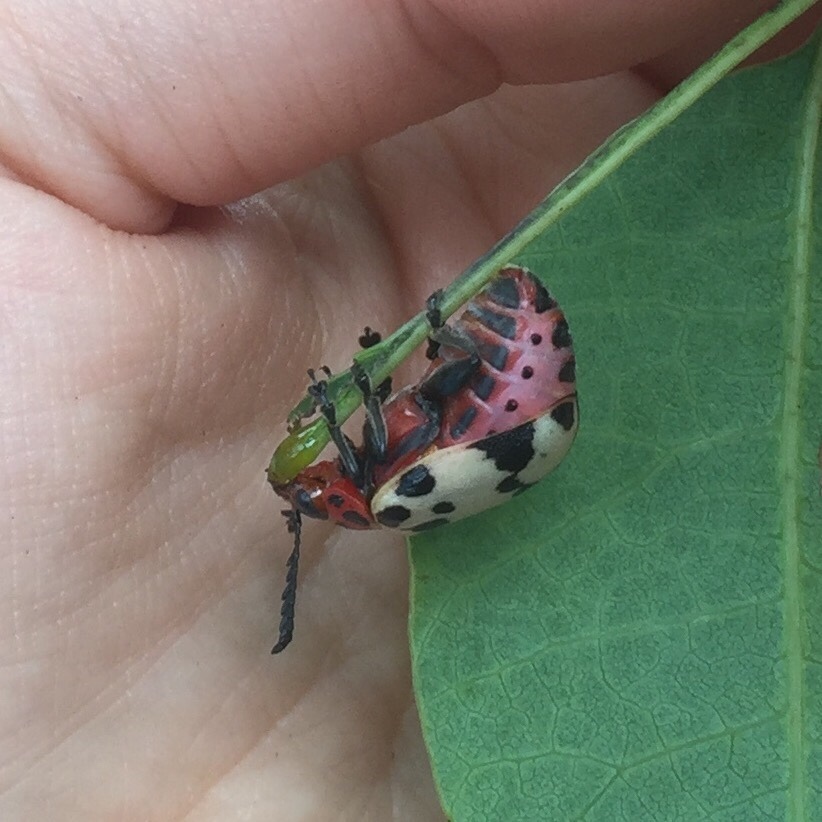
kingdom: Animalia
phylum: Arthropoda
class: Insecta
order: Coleoptera
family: Chrysomelidae
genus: Polyclada
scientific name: Polyclada
